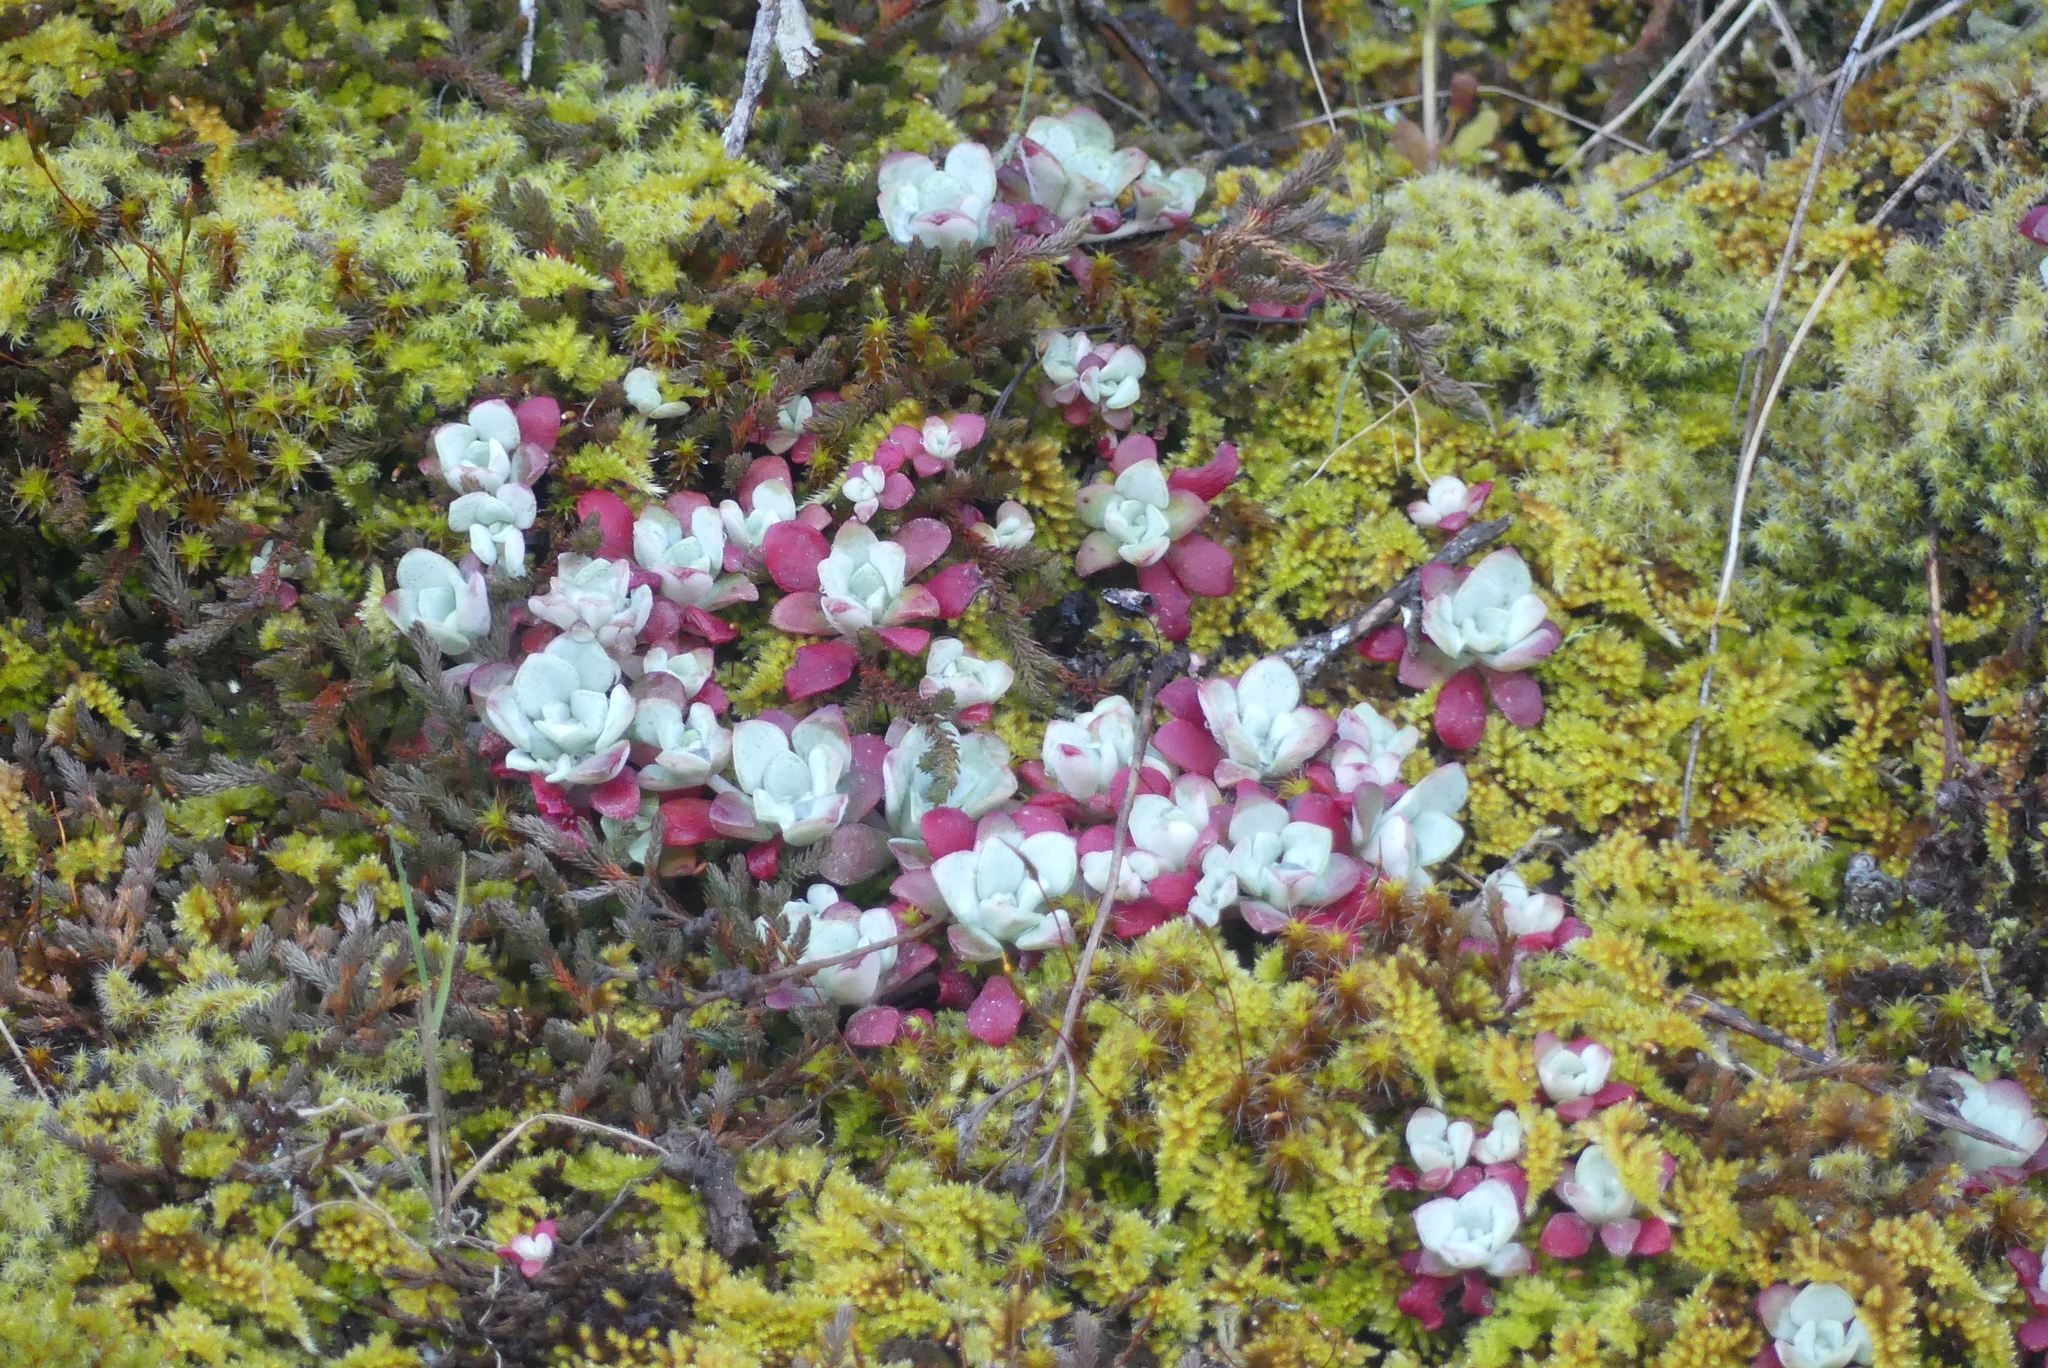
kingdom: Plantae
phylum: Tracheophyta
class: Magnoliopsida
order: Saxifragales
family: Crassulaceae
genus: Sedum
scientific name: Sedum spathulifolium
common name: Colorado stonecrop
